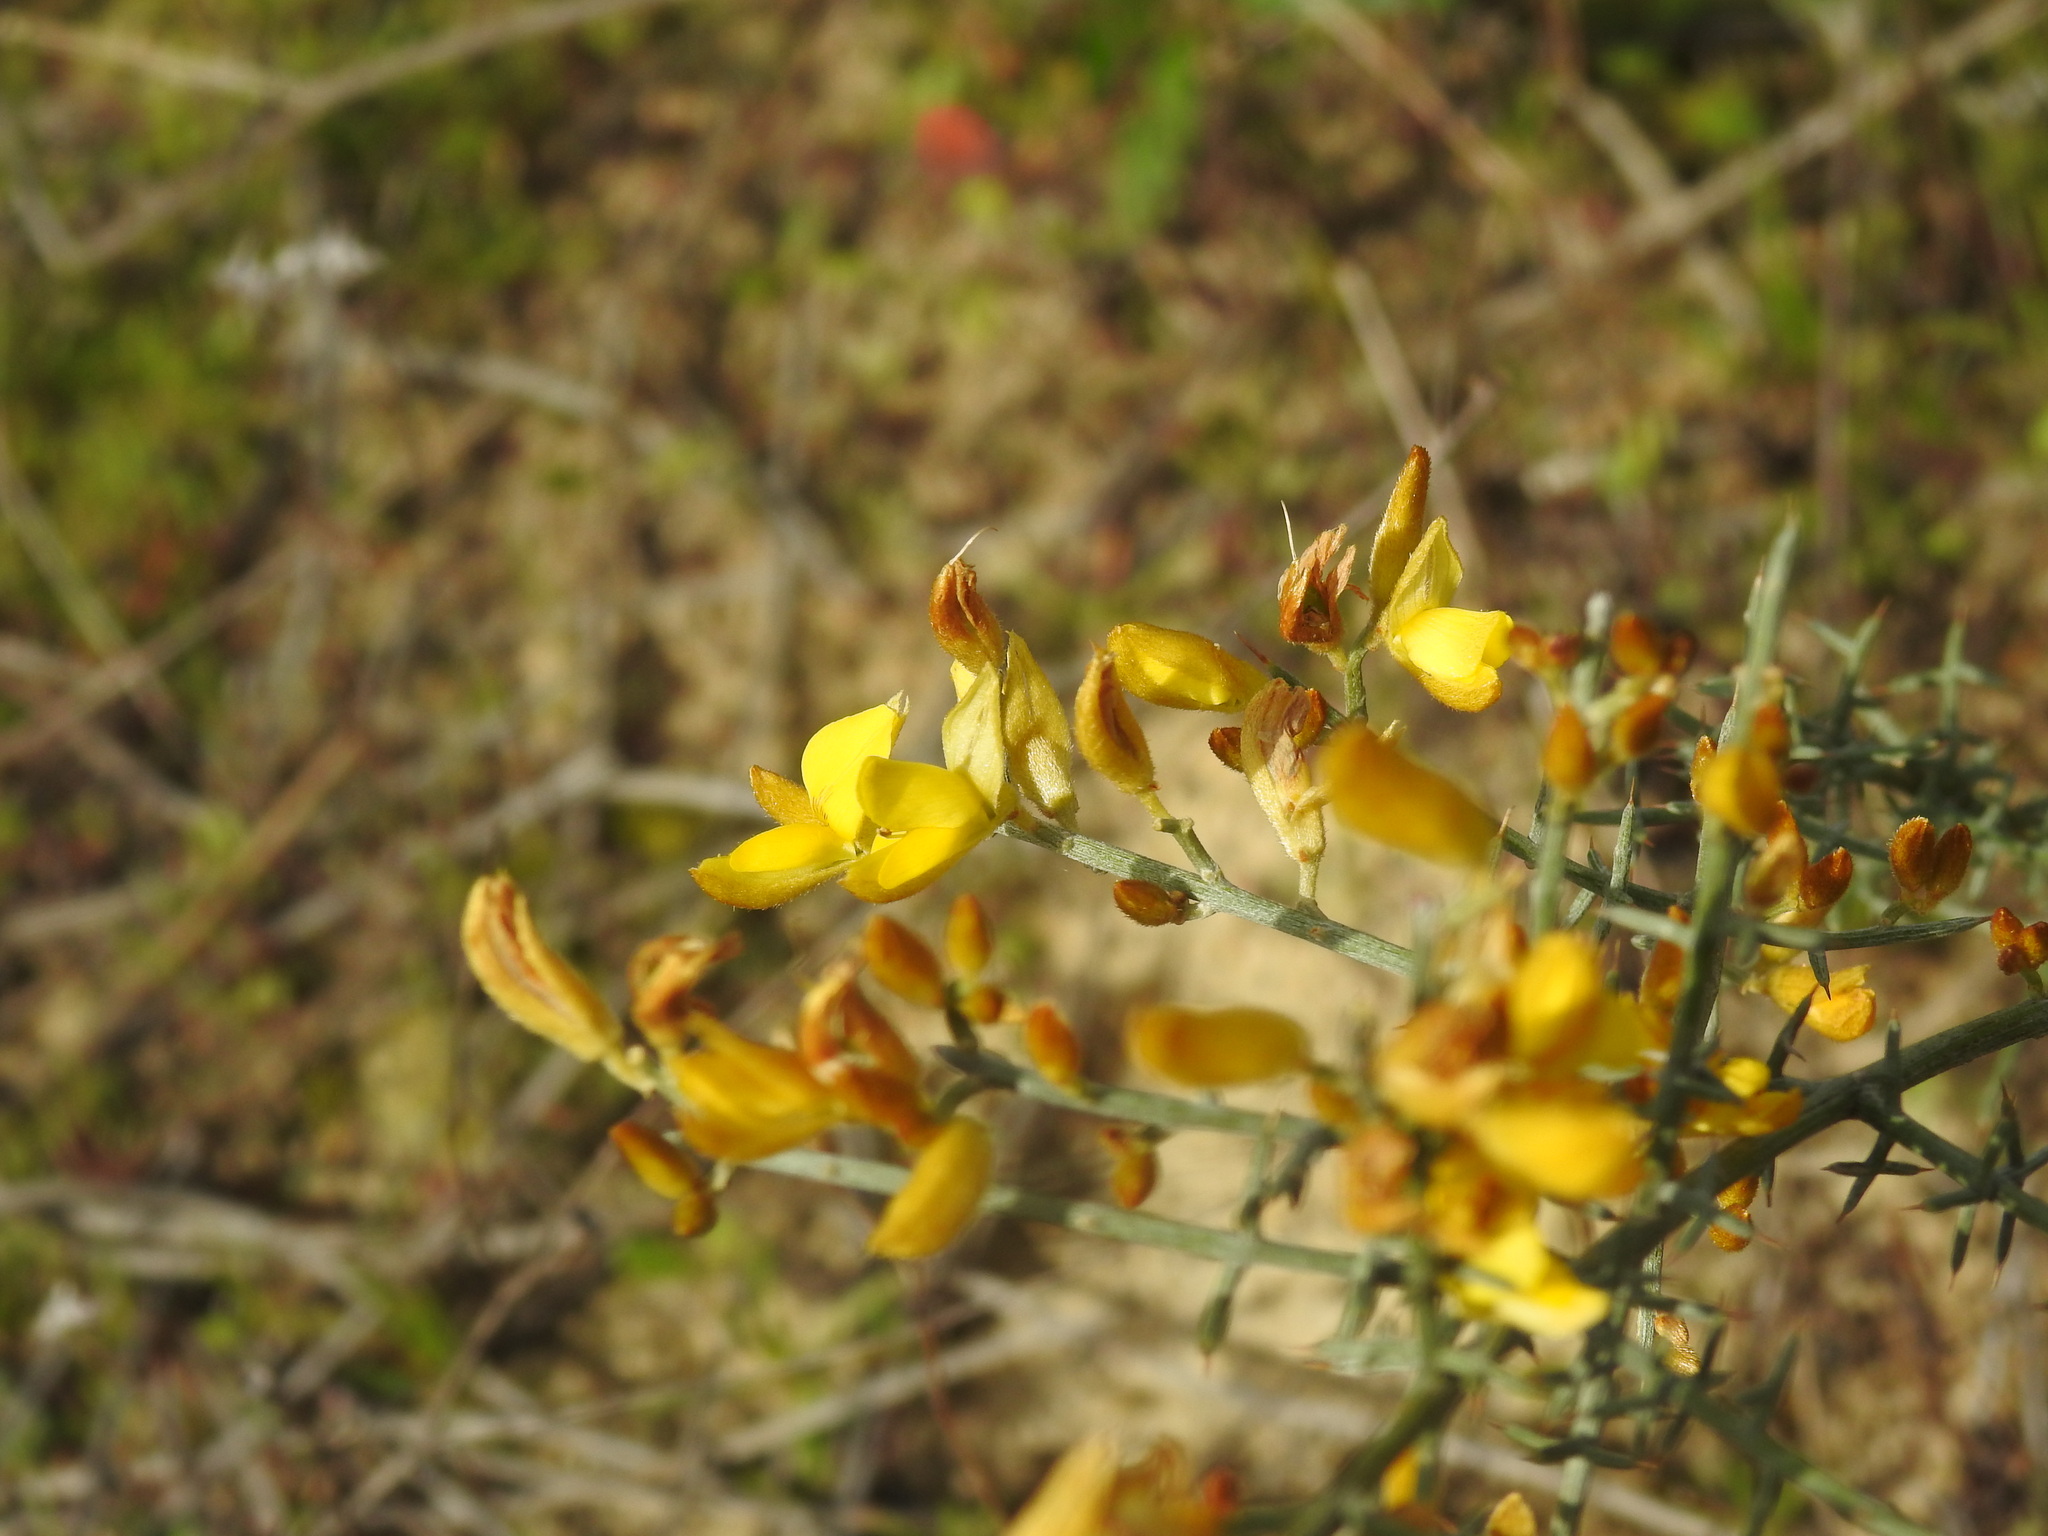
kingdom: Plantae
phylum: Tracheophyta
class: Magnoliopsida
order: Fabales
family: Fabaceae
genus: Stauracanthus
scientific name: Stauracanthus genistoides
